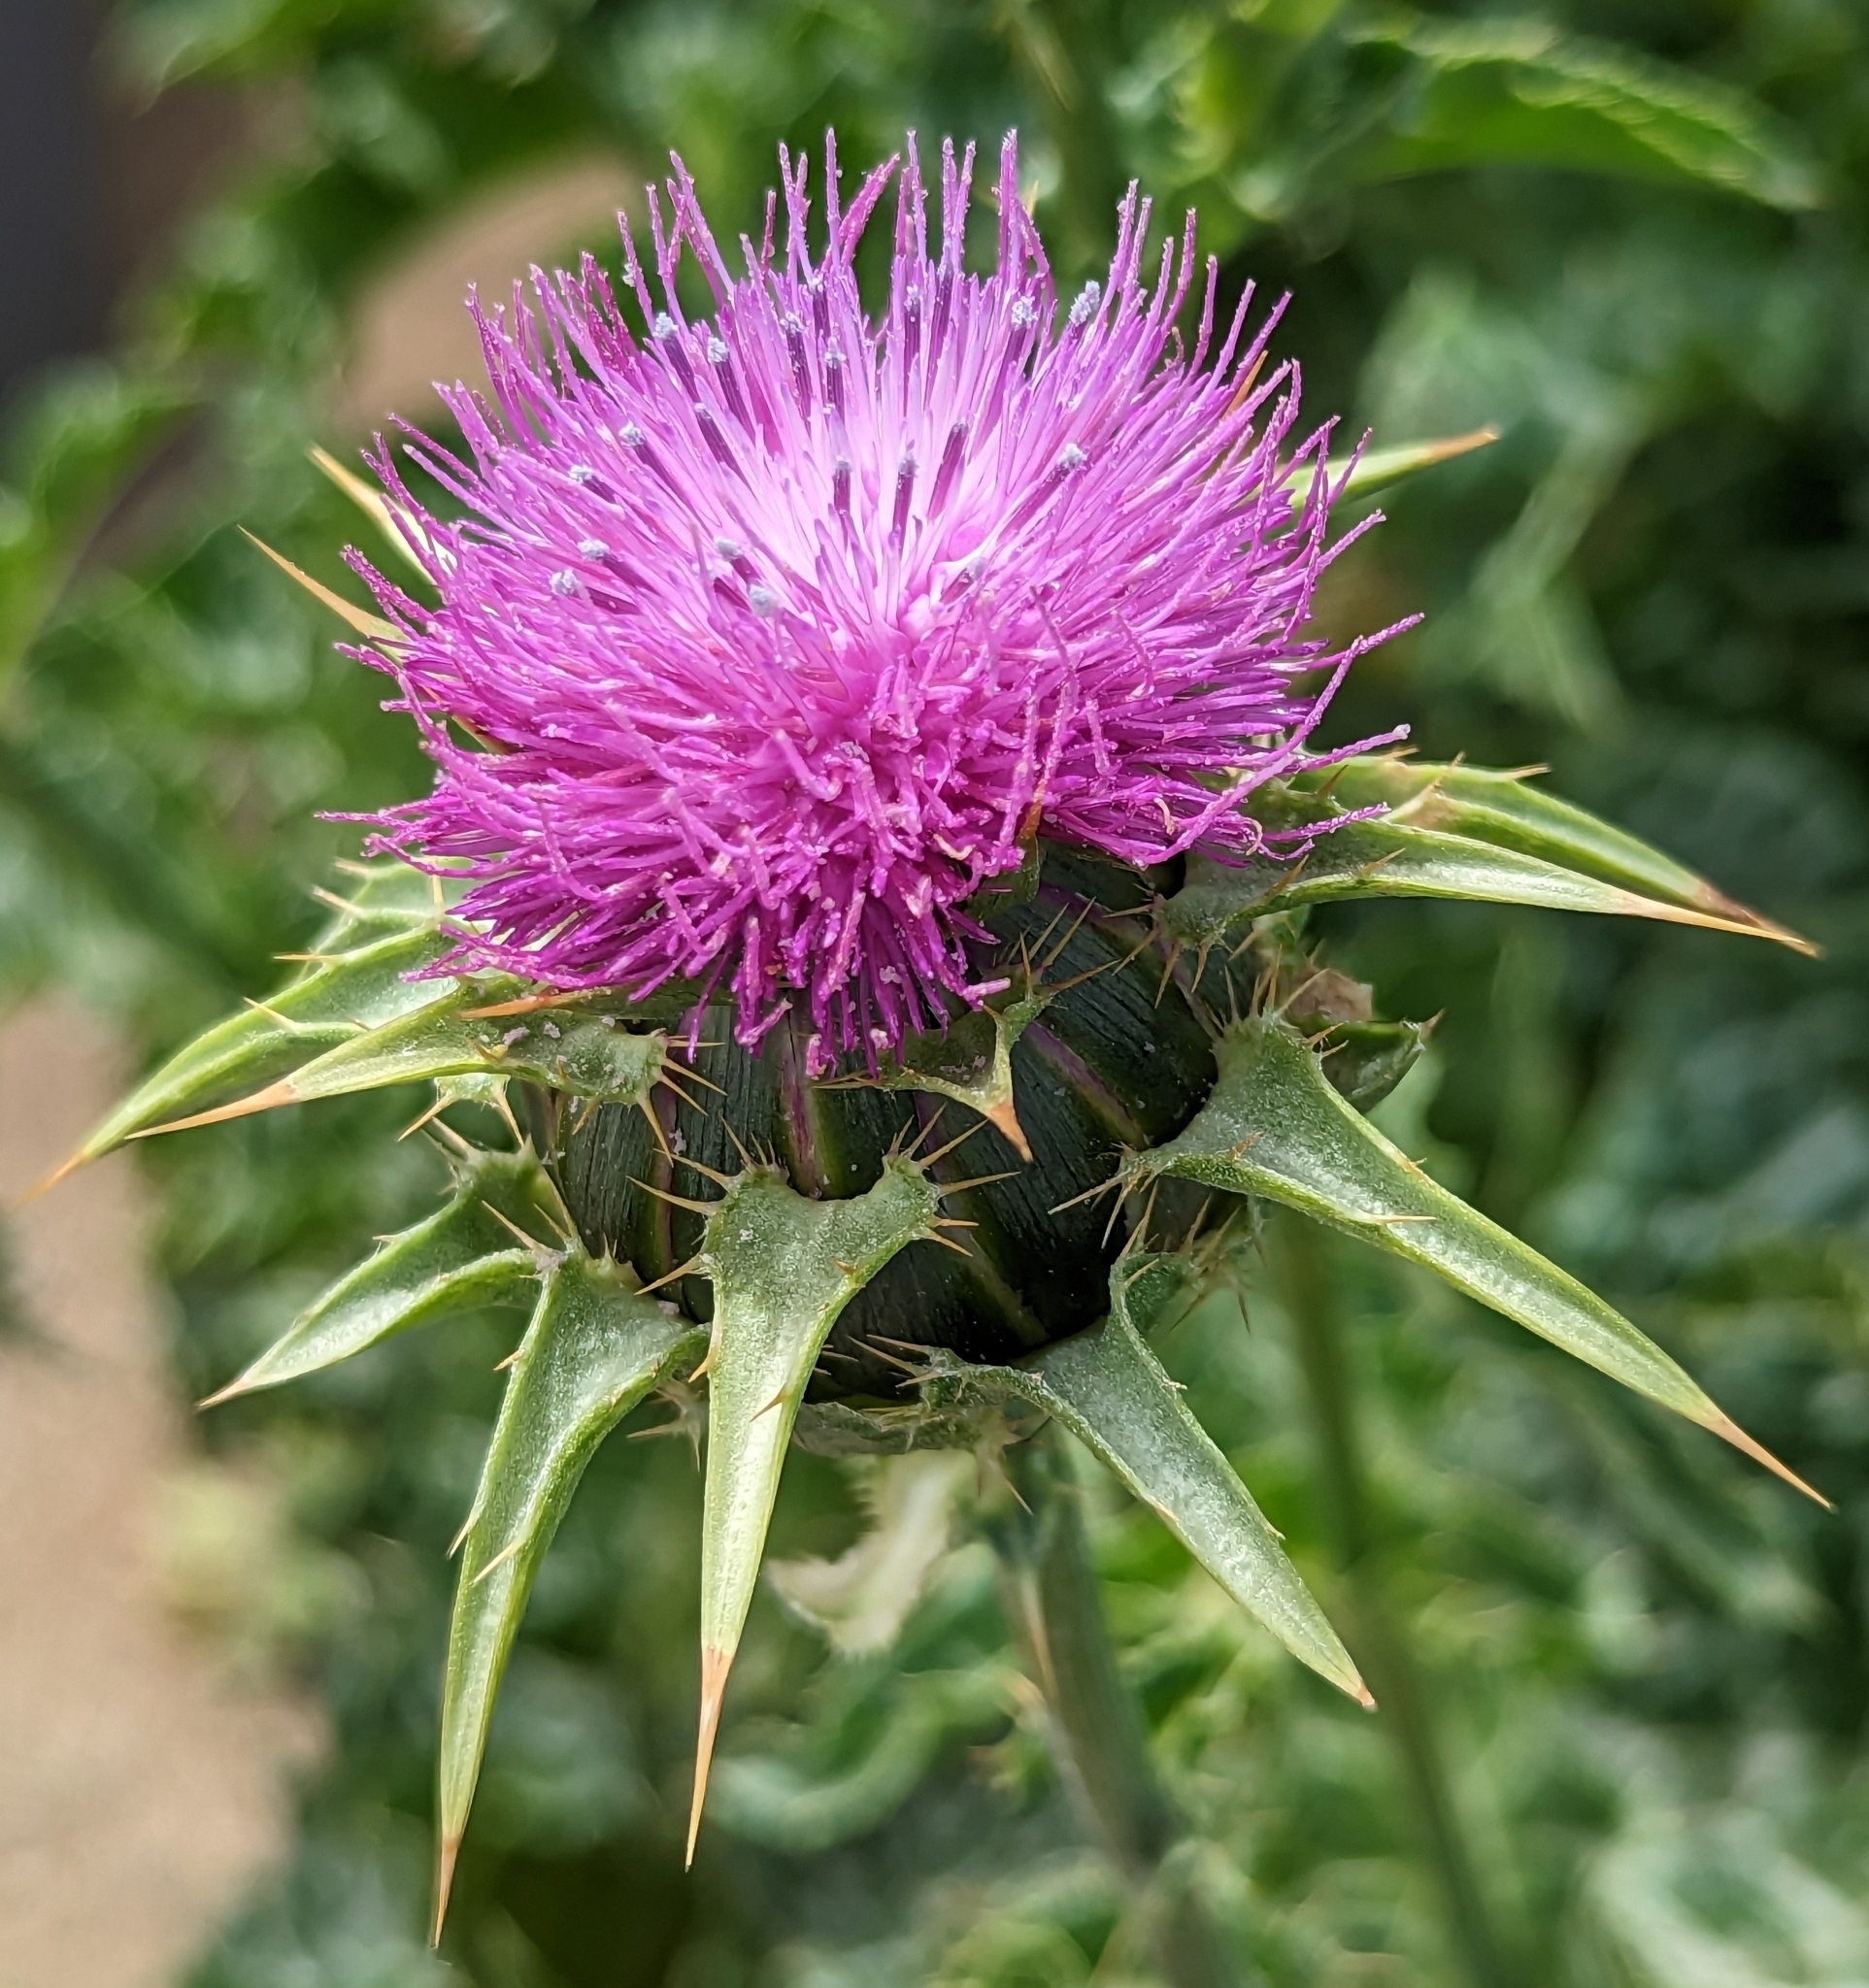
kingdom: Plantae
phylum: Tracheophyta
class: Magnoliopsida
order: Asterales
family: Asteraceae
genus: Silybum
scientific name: Silybum marianum
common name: Milk thistle
